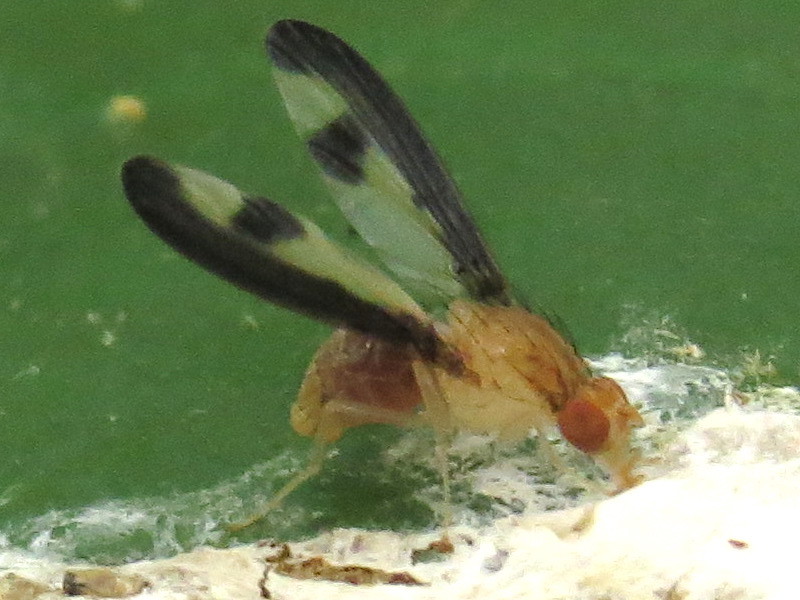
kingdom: Animalia
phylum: Arthropoda
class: Insecta
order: Diptera
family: Pallopteridae
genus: Toxonevra
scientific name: Toxonevra superba
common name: Antlered flutter fly
